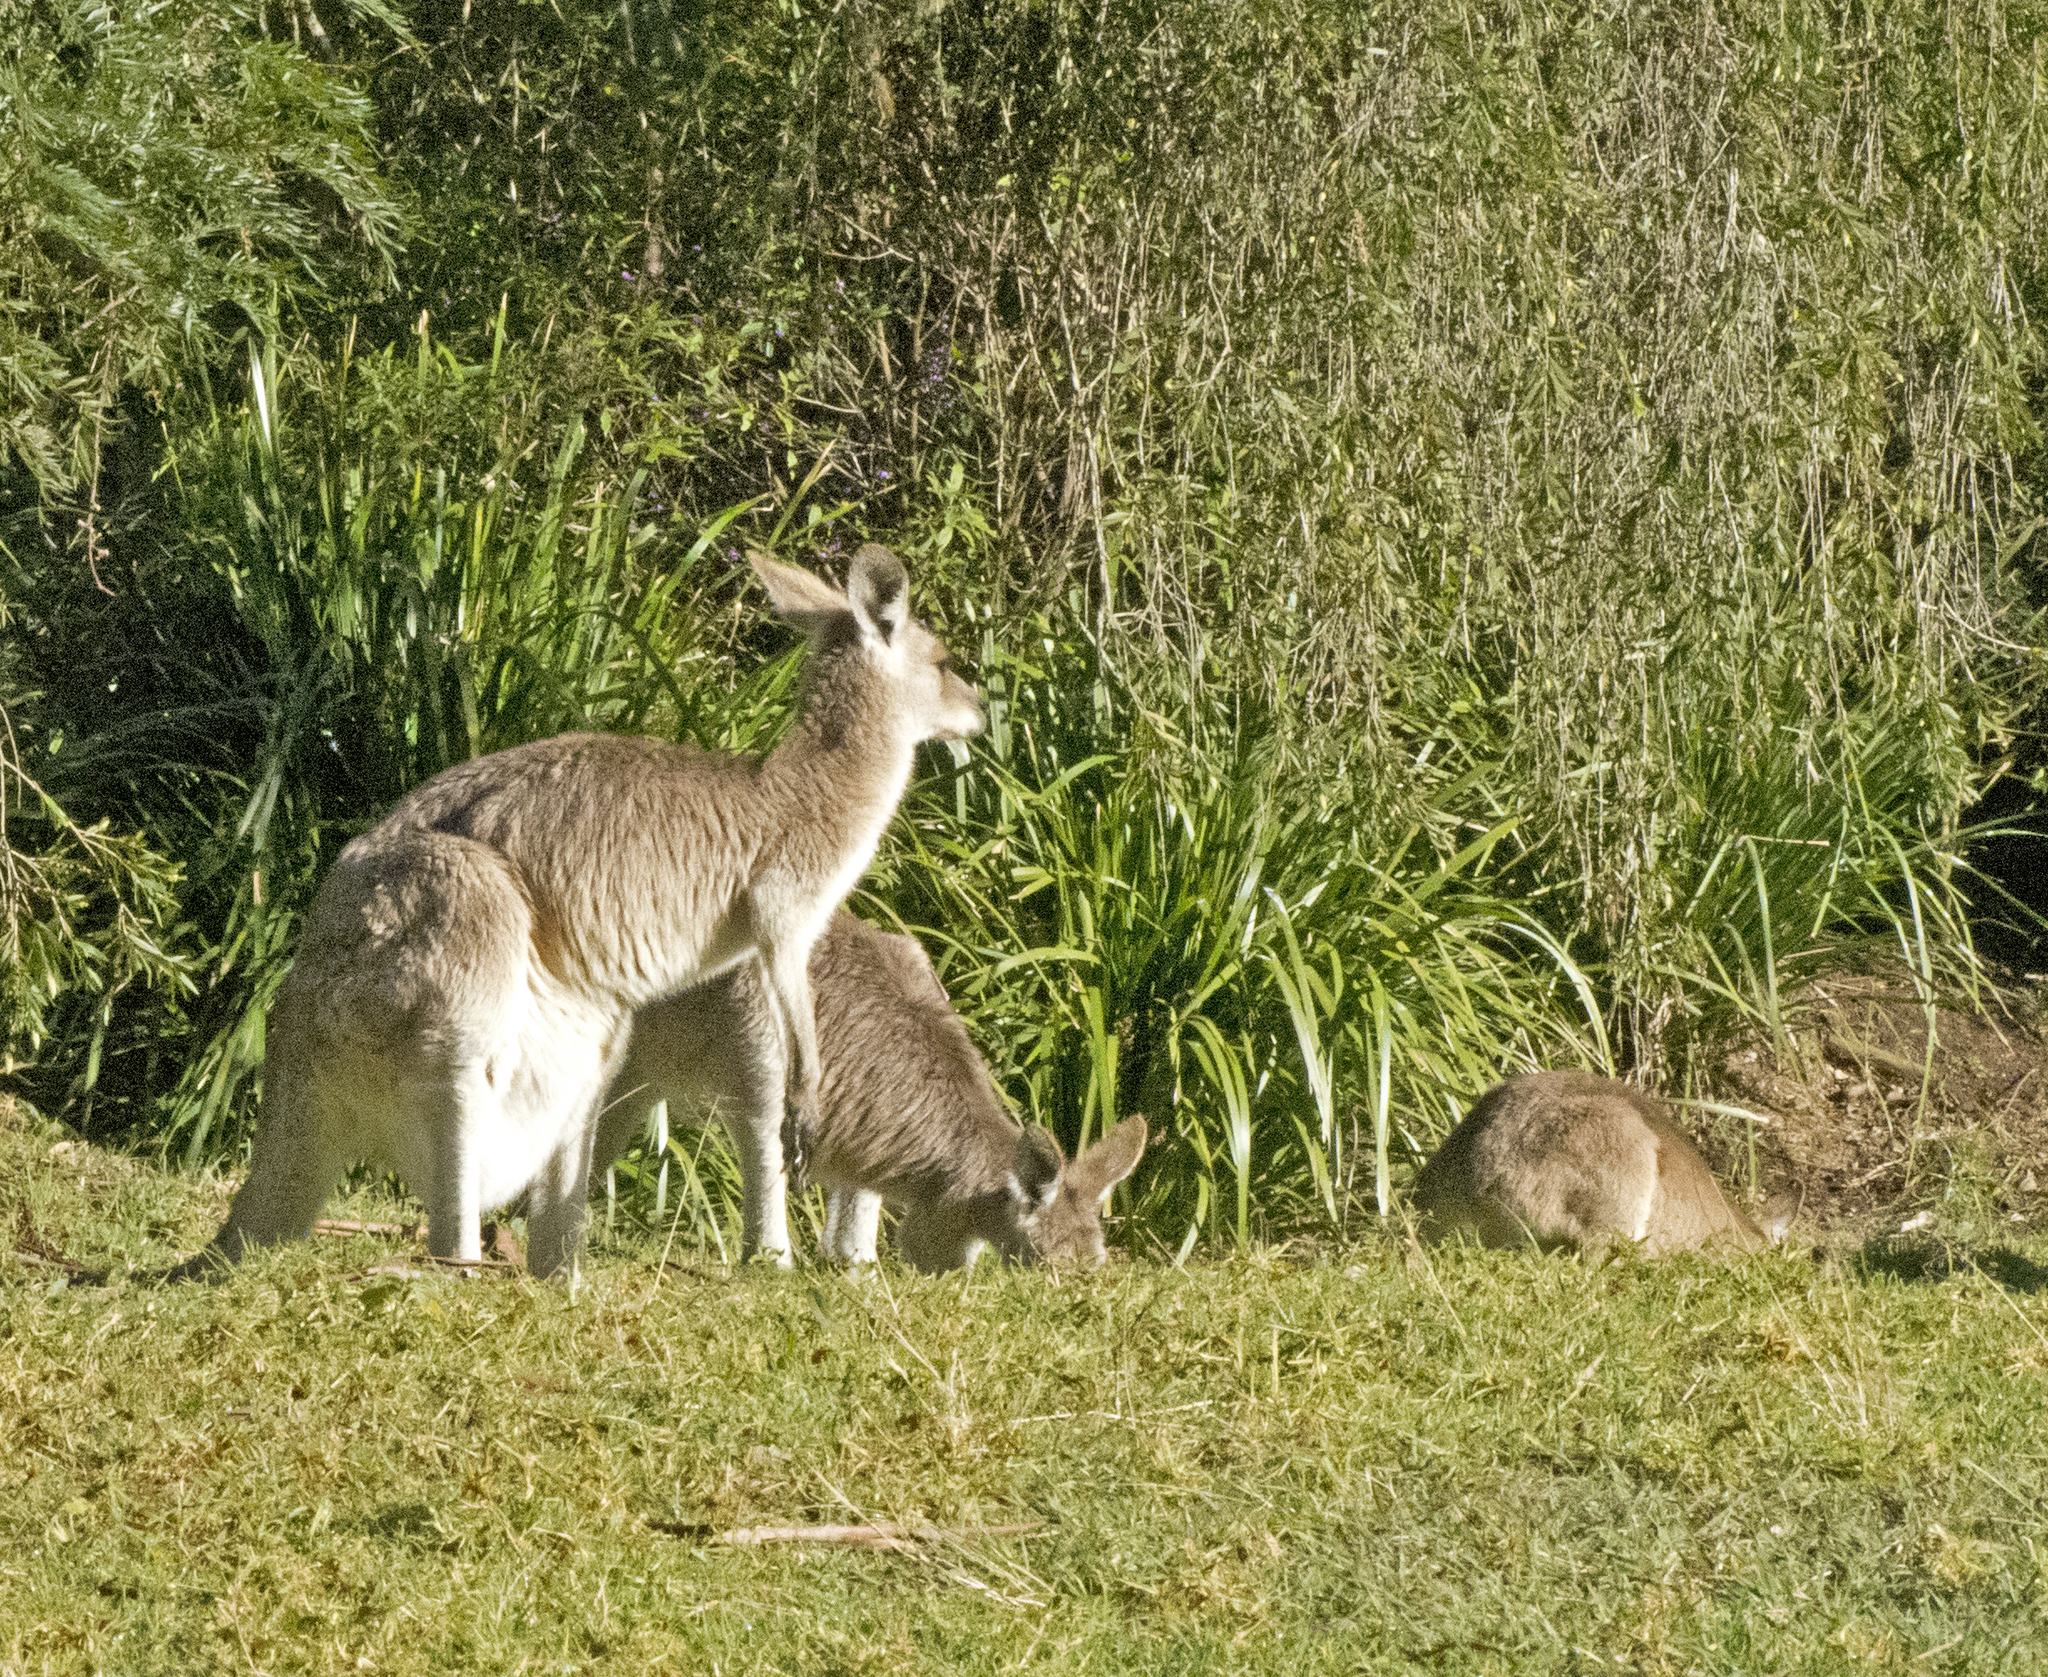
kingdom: Animalia
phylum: Chordata
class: Mammalia
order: Diprotodontia
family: Macropodidae
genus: Macropus
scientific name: Macropus giganteus
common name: Eastern grey kangaroo
